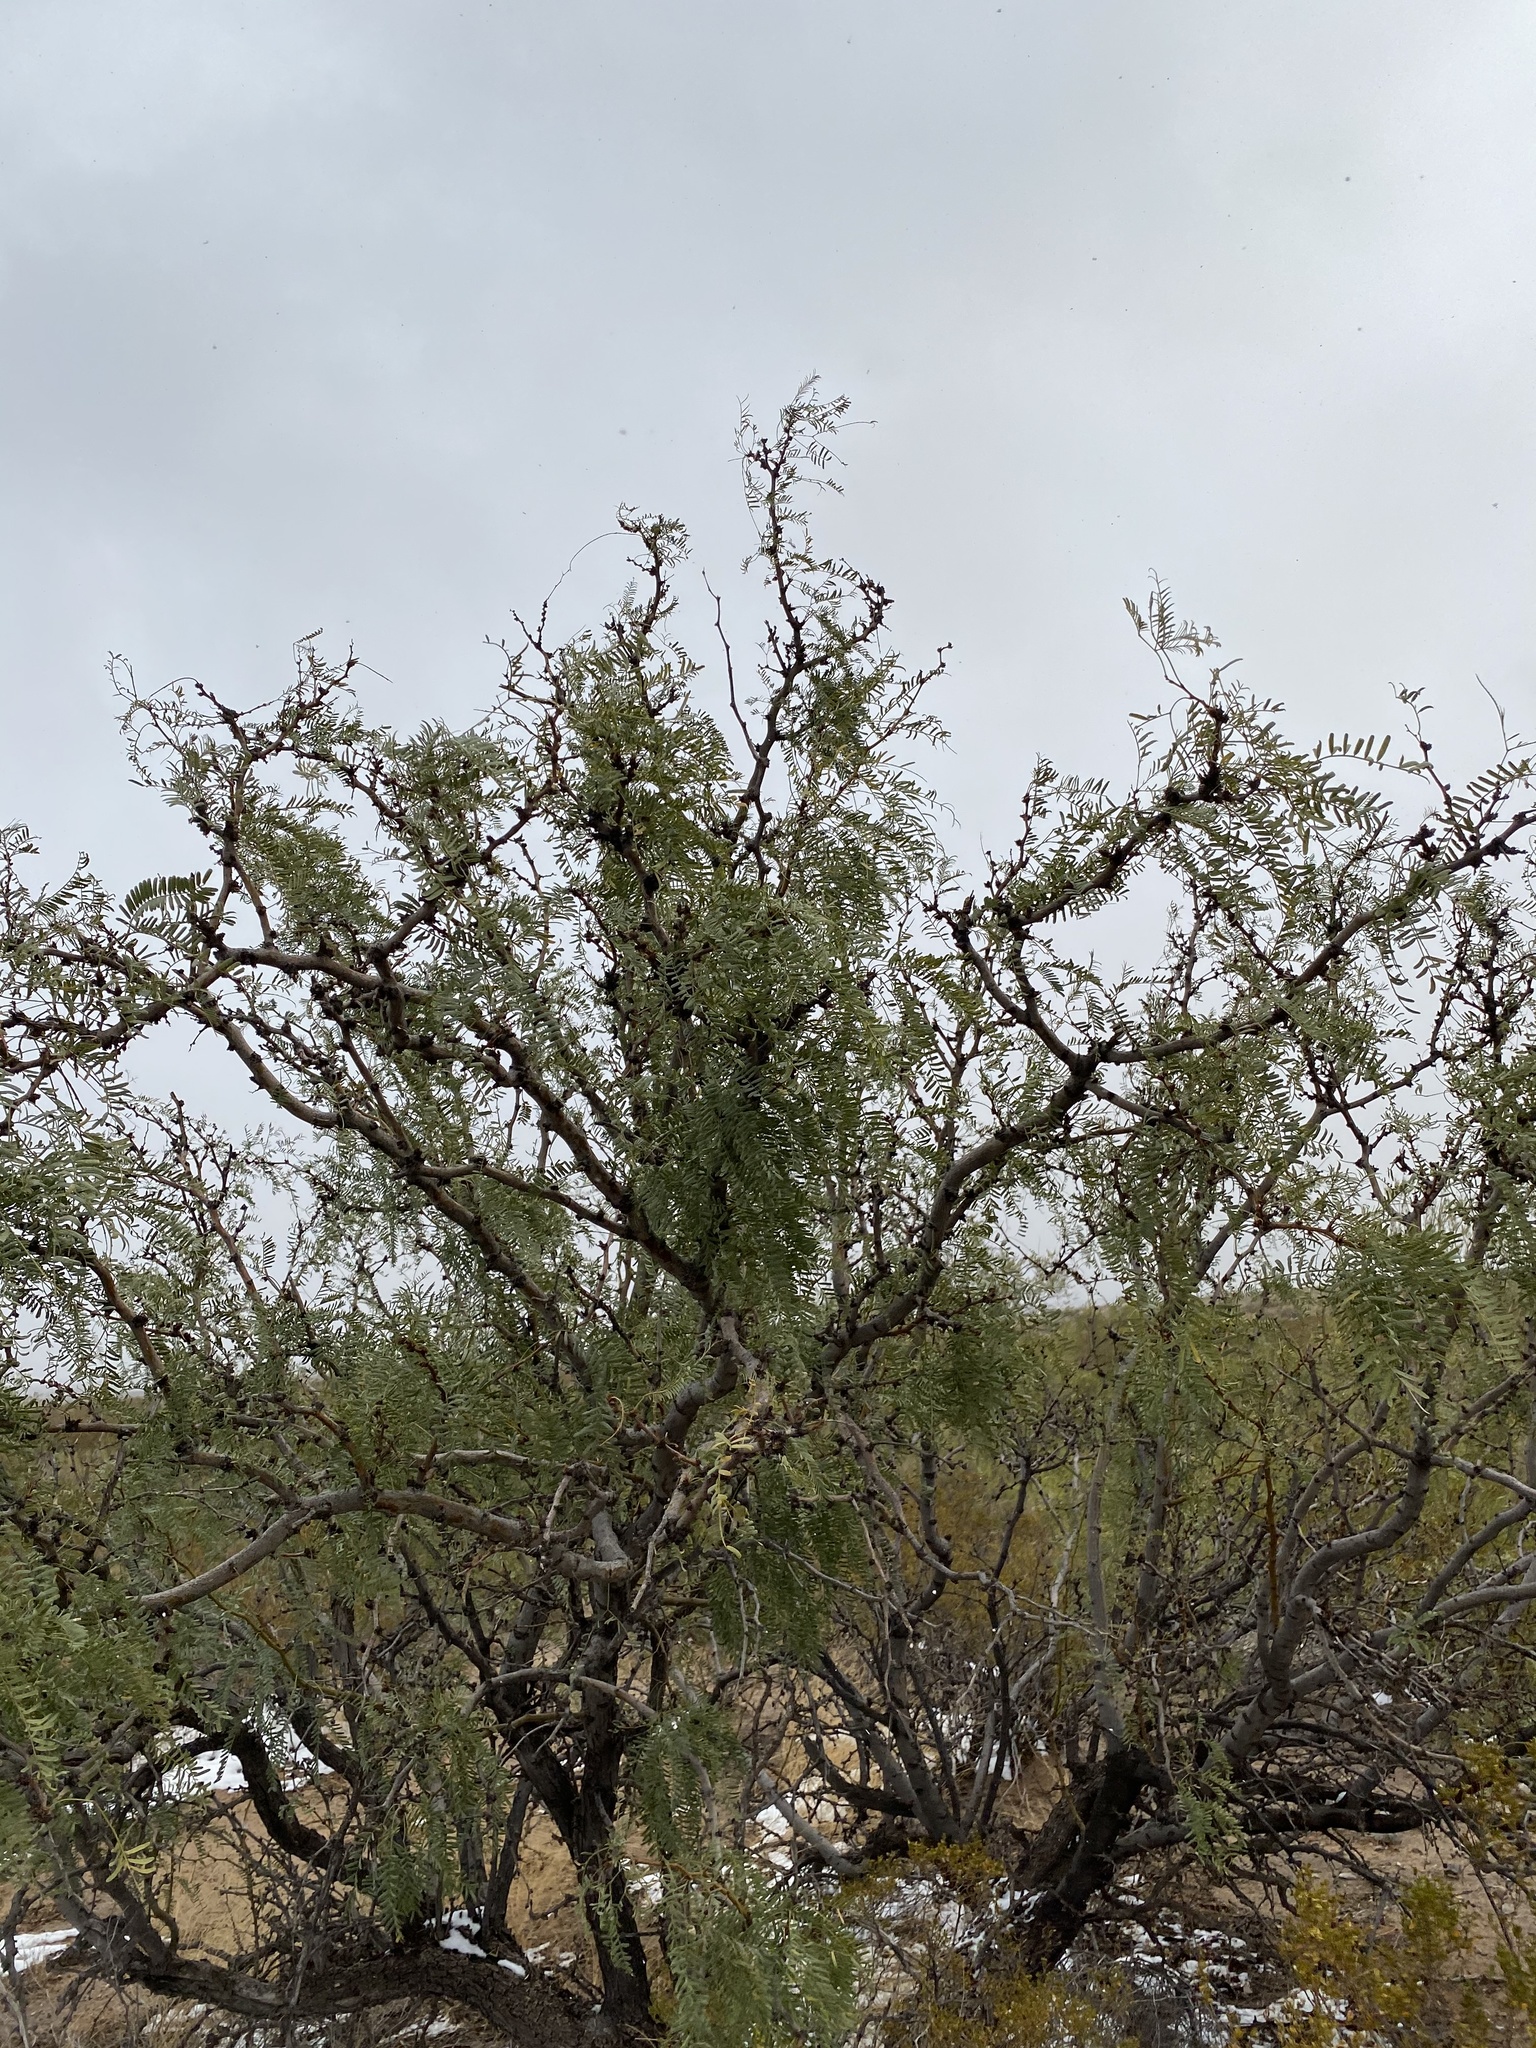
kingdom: Plantae
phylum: Tracheophyta
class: Magnoliopsida
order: Fabales
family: Fabaceae
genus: Prosopis
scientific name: Prosopis glandulosa
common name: Honey mesquite
